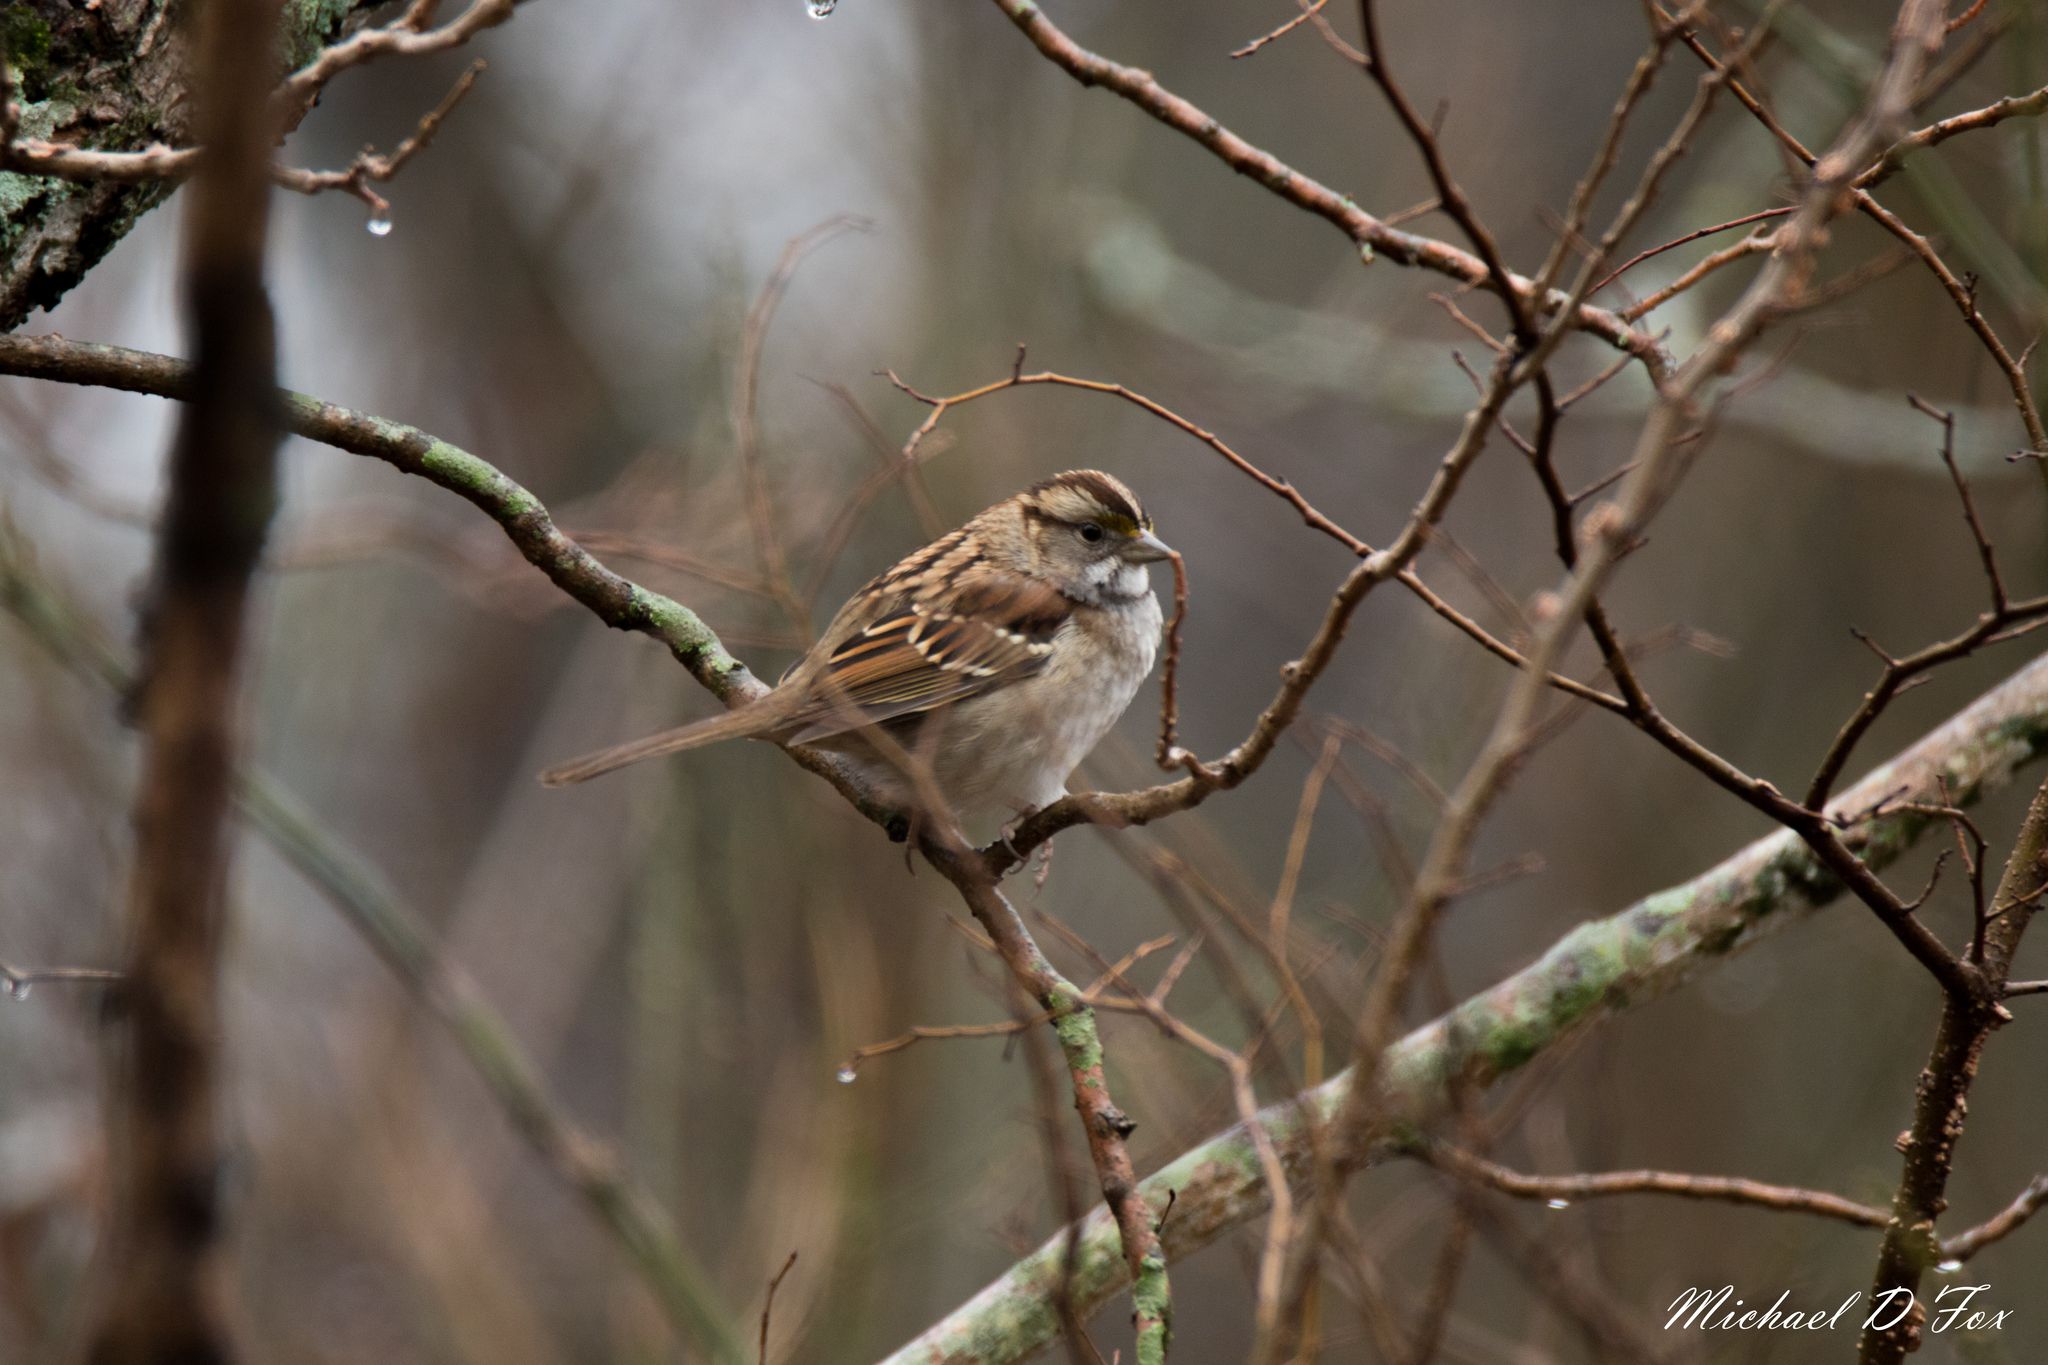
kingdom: Animalia
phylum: Chordata
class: Aves
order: Passeriformes
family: Passerellidae
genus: Zonotrichia
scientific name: Zonotrichia albicollis
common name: White-throated sparrow
